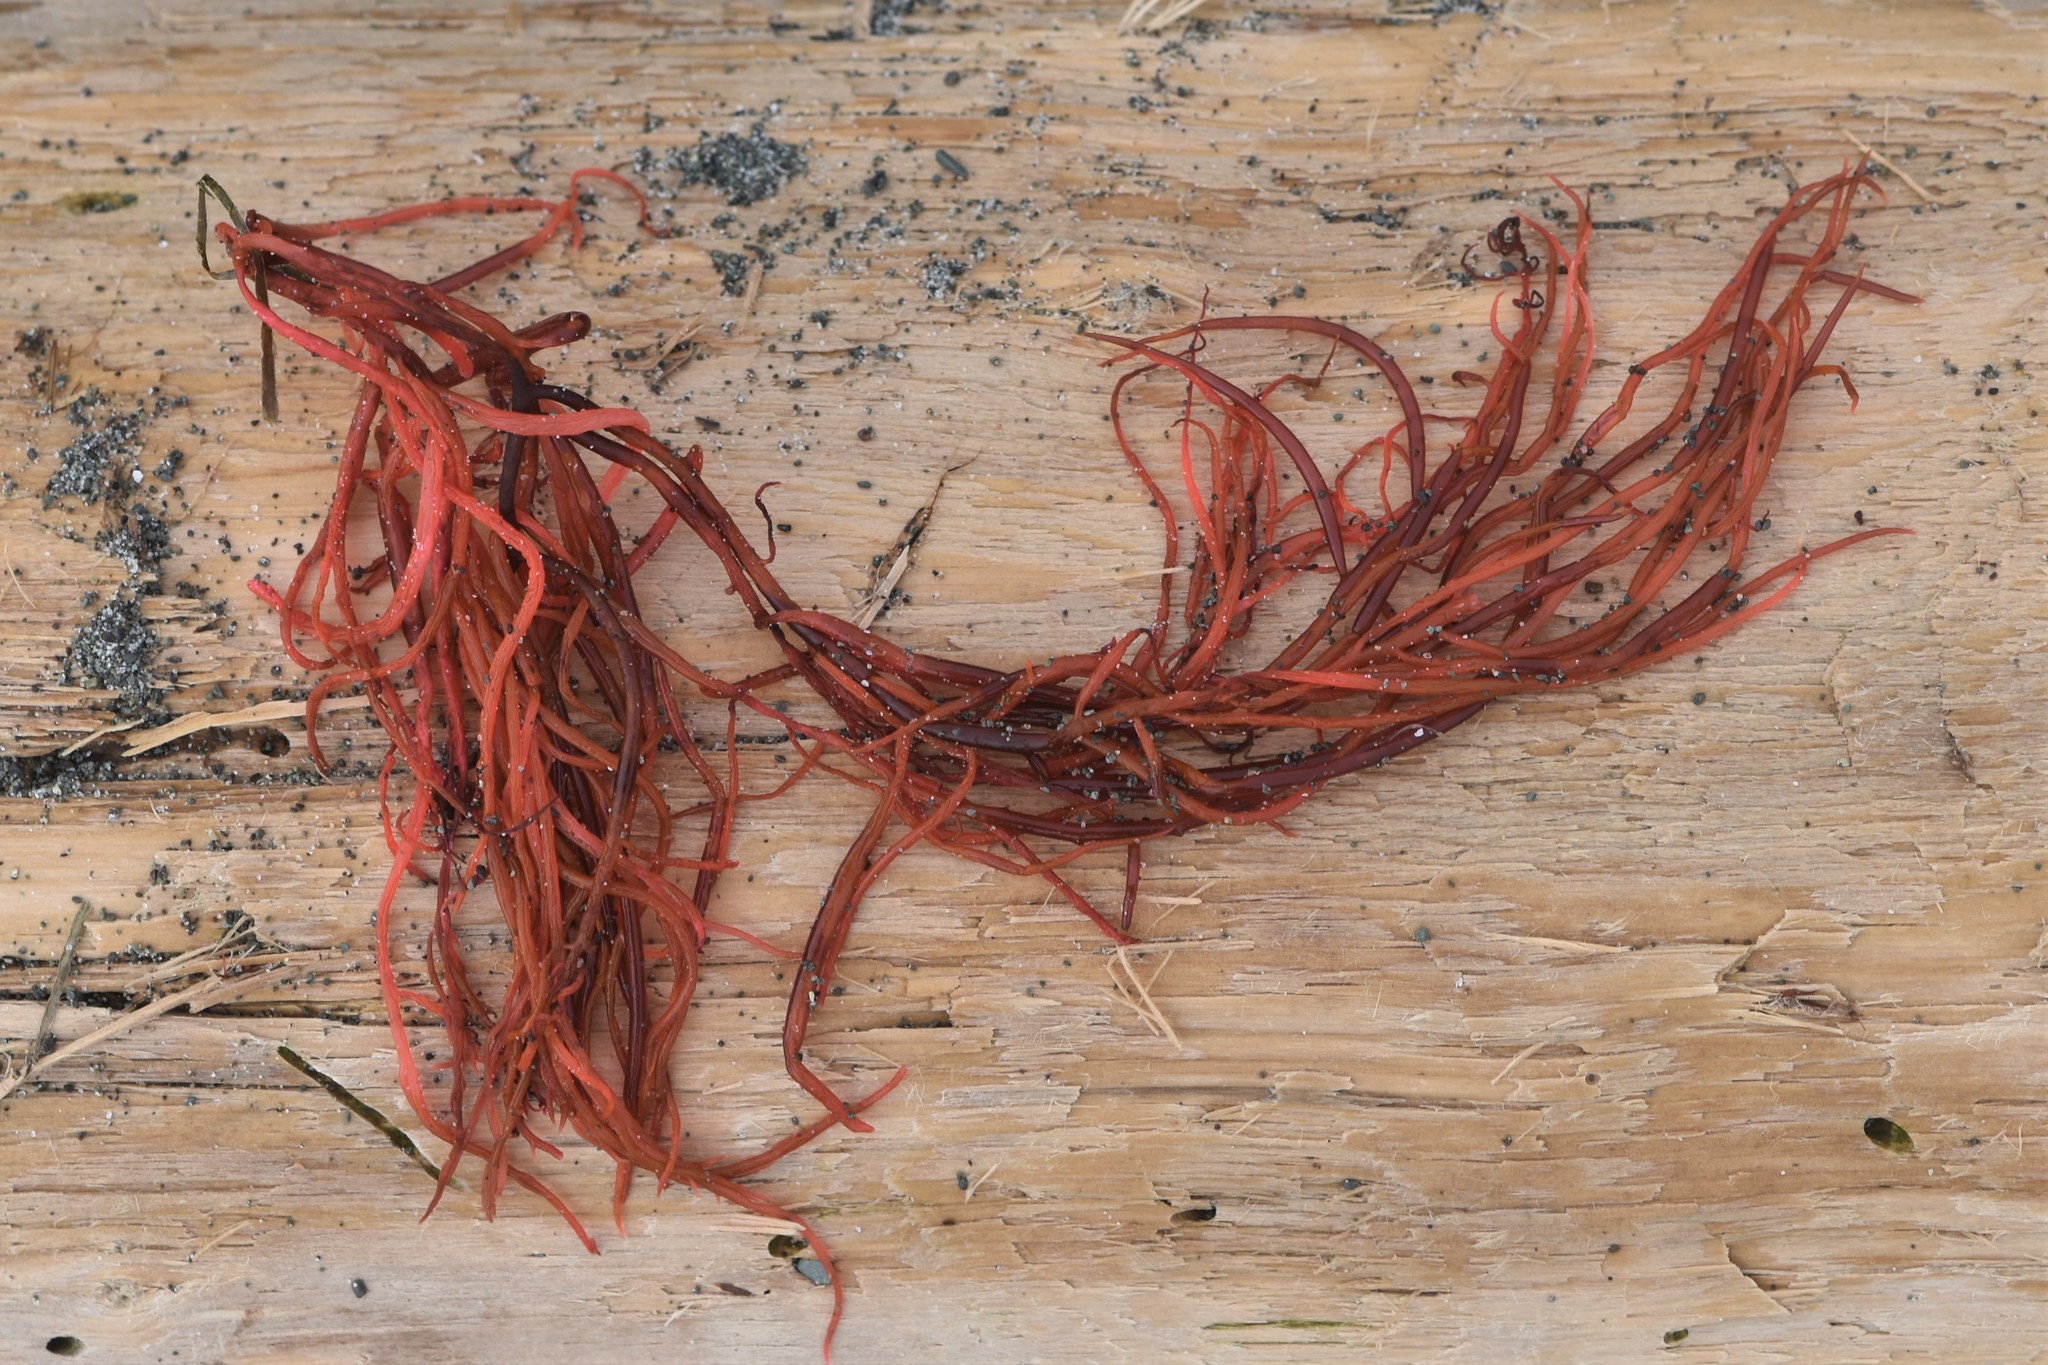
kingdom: Plantae
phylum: Rhodophyta
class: Florideophyceae
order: Gigartinales
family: Solieriaceae
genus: Sarcodiotheca
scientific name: Sarcodiotheca gaudichaudii
